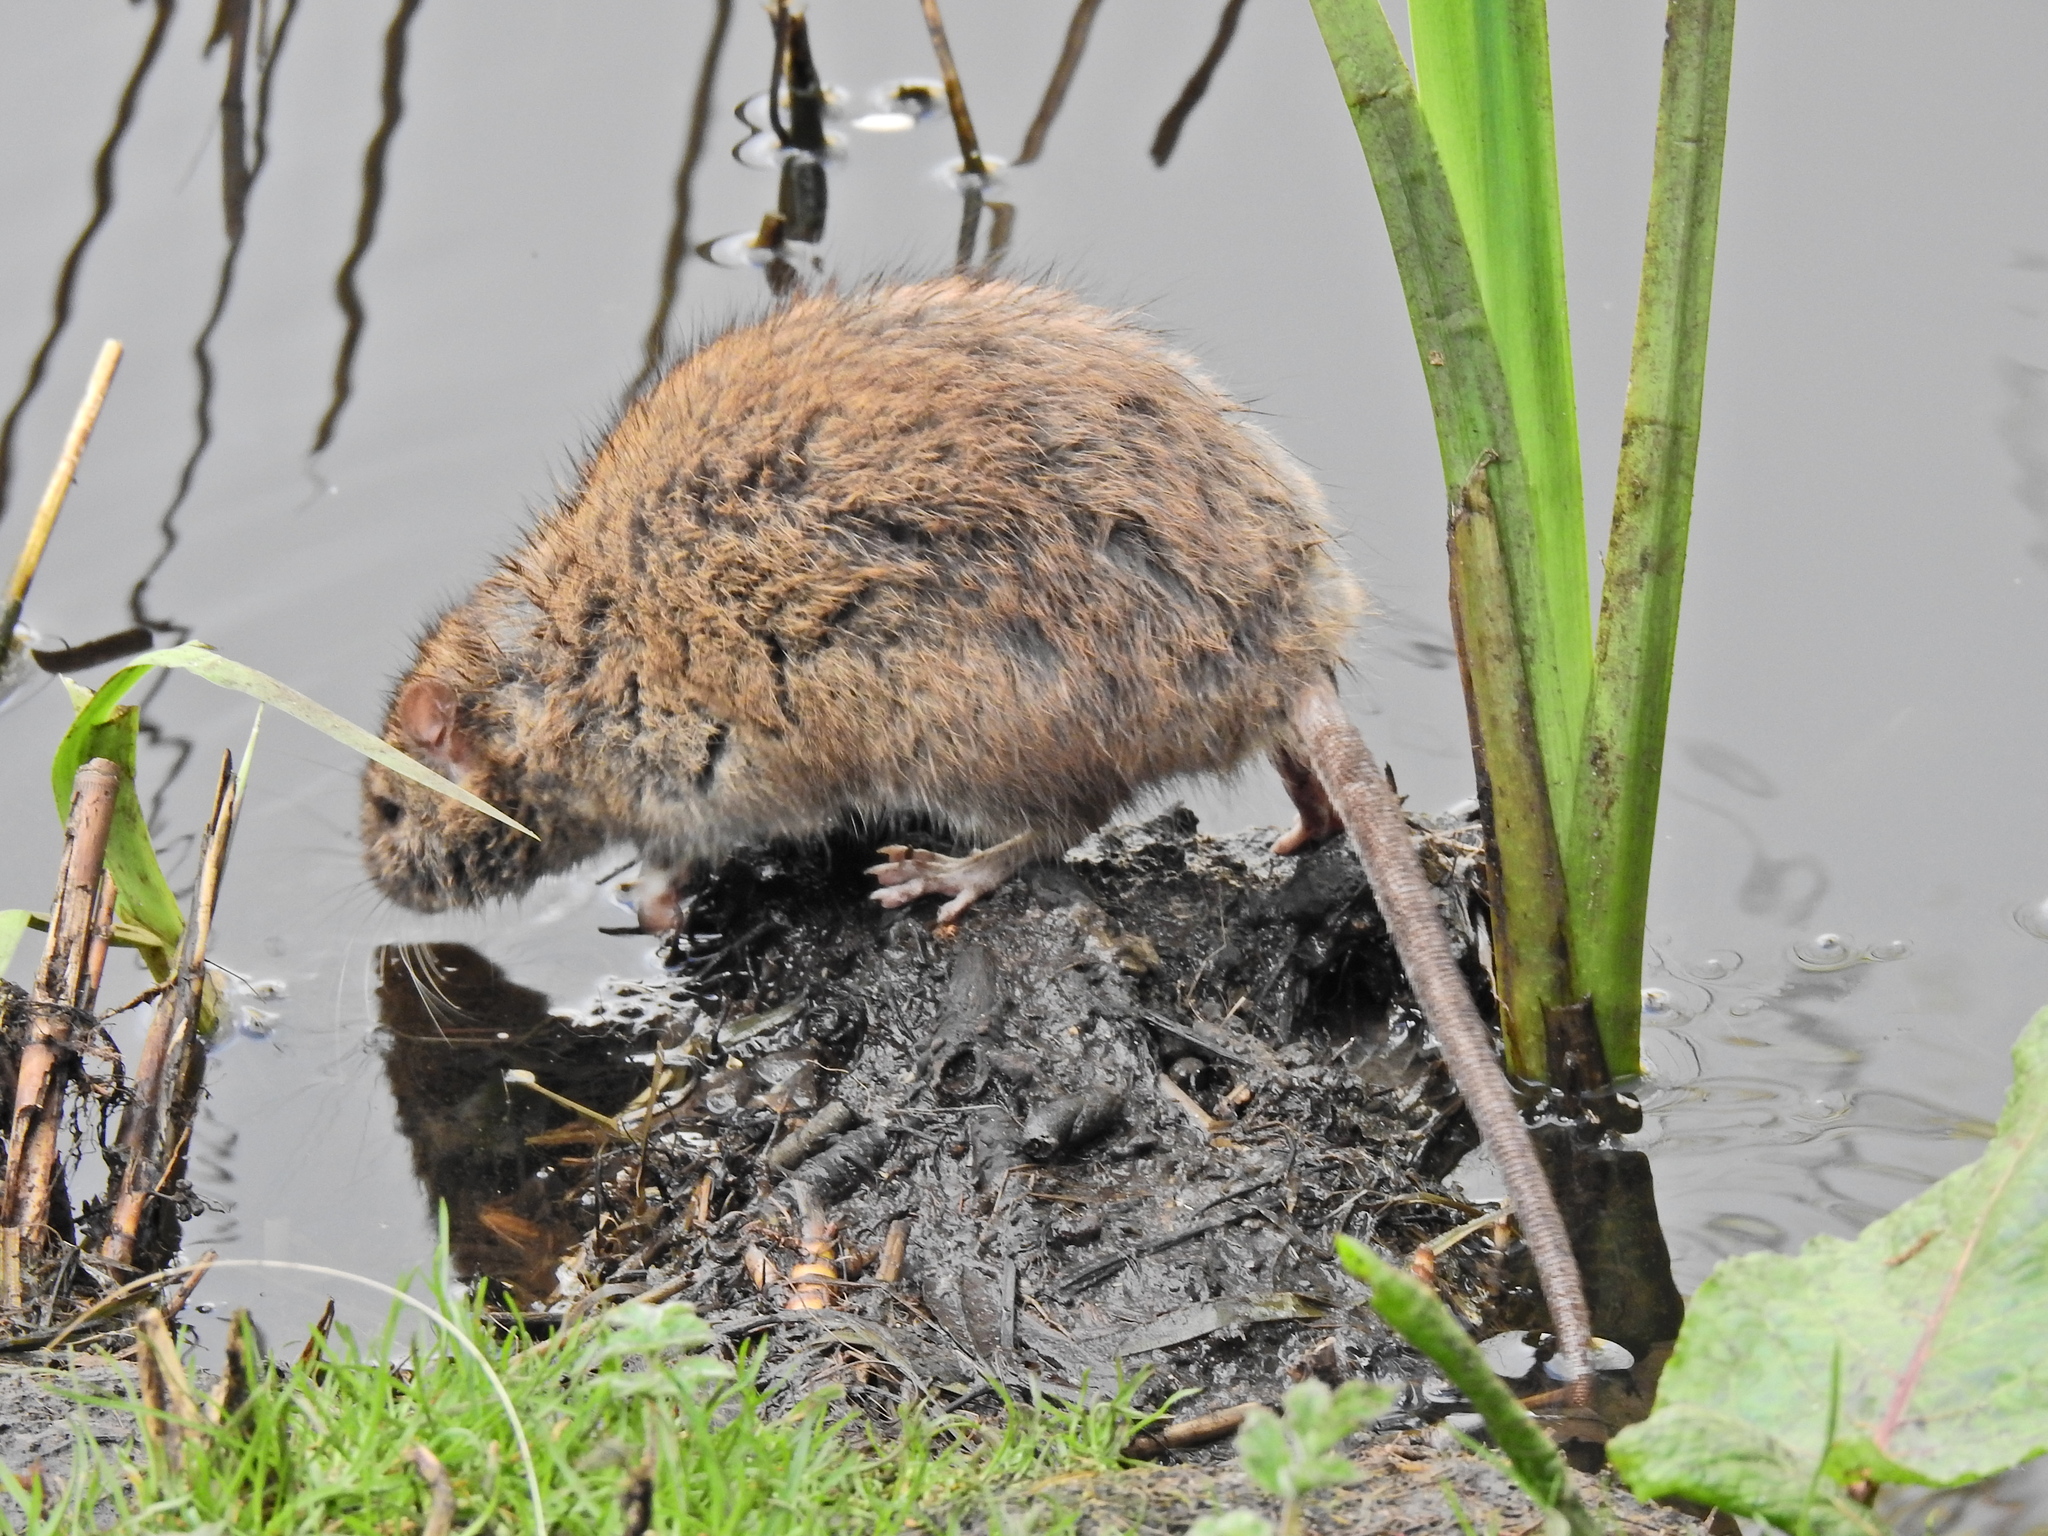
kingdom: Animalia
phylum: Chordata
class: Mammalia
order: Rodentia
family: Muridae
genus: Rattus
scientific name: Rattus norvegicus
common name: Brown rat
